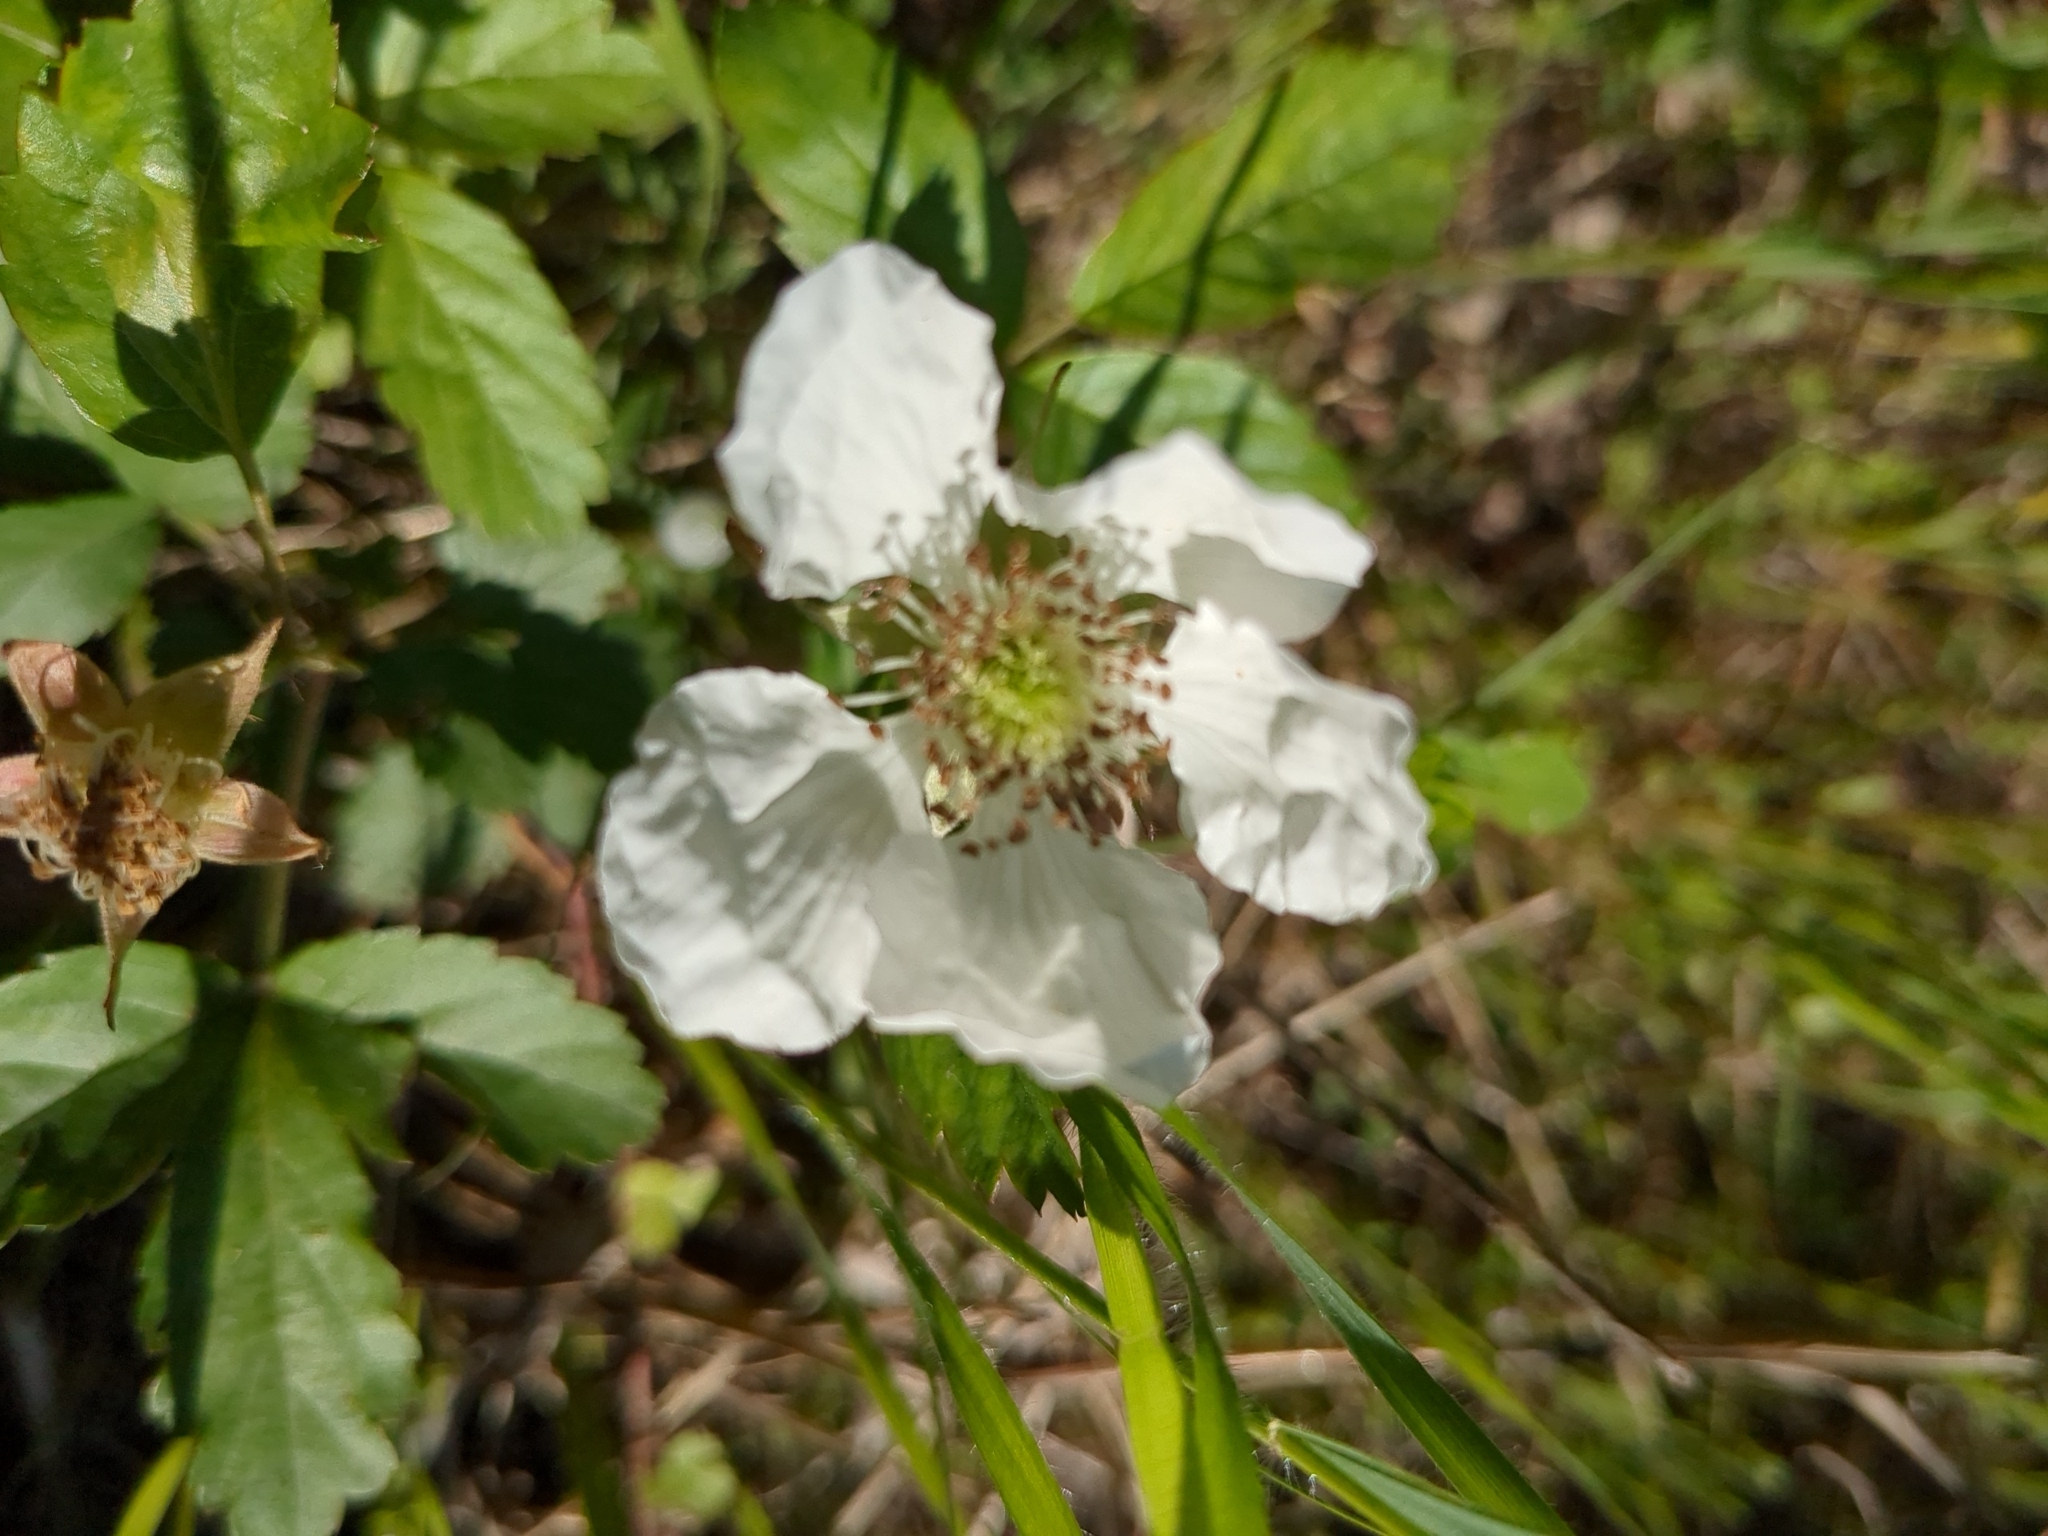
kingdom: Plantae
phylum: Tracheophyta
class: Magnoliopsida
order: Rosales
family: Rosaceae
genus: Rubus
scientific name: Rubus trivialis
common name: Southern dewberry
